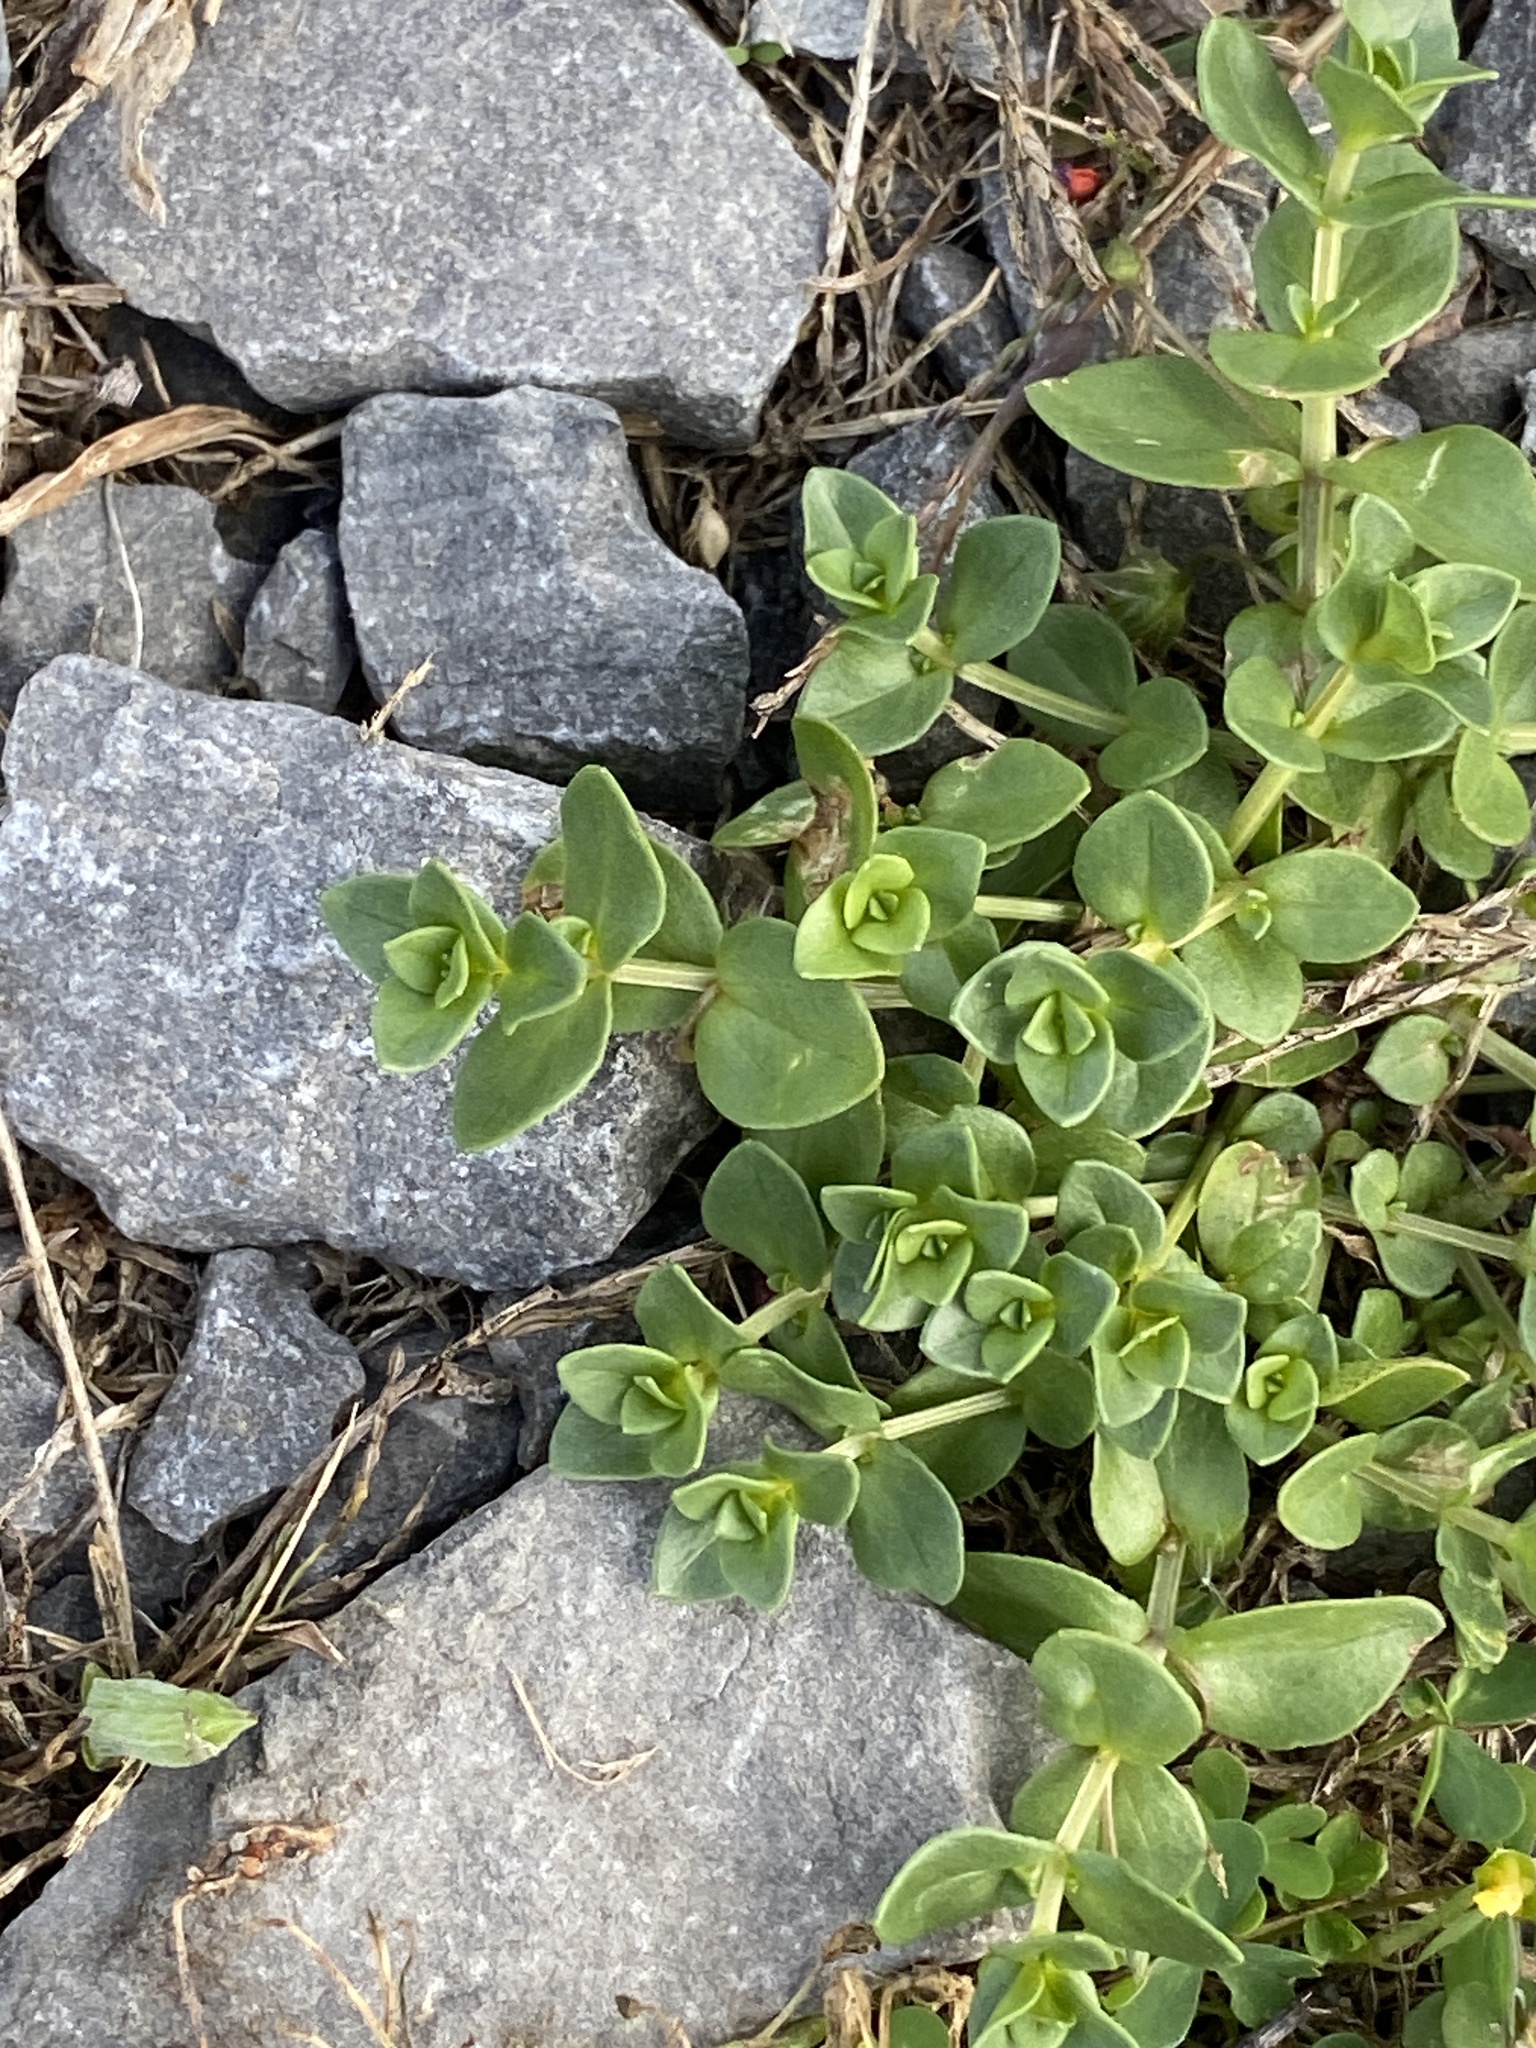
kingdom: Plantae
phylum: Tracheophyta
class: Magnoliopsida
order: Ericales
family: Primulaceae
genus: Lysimachia
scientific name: Lysimachia arvensis
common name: Scarlet pimpernel
